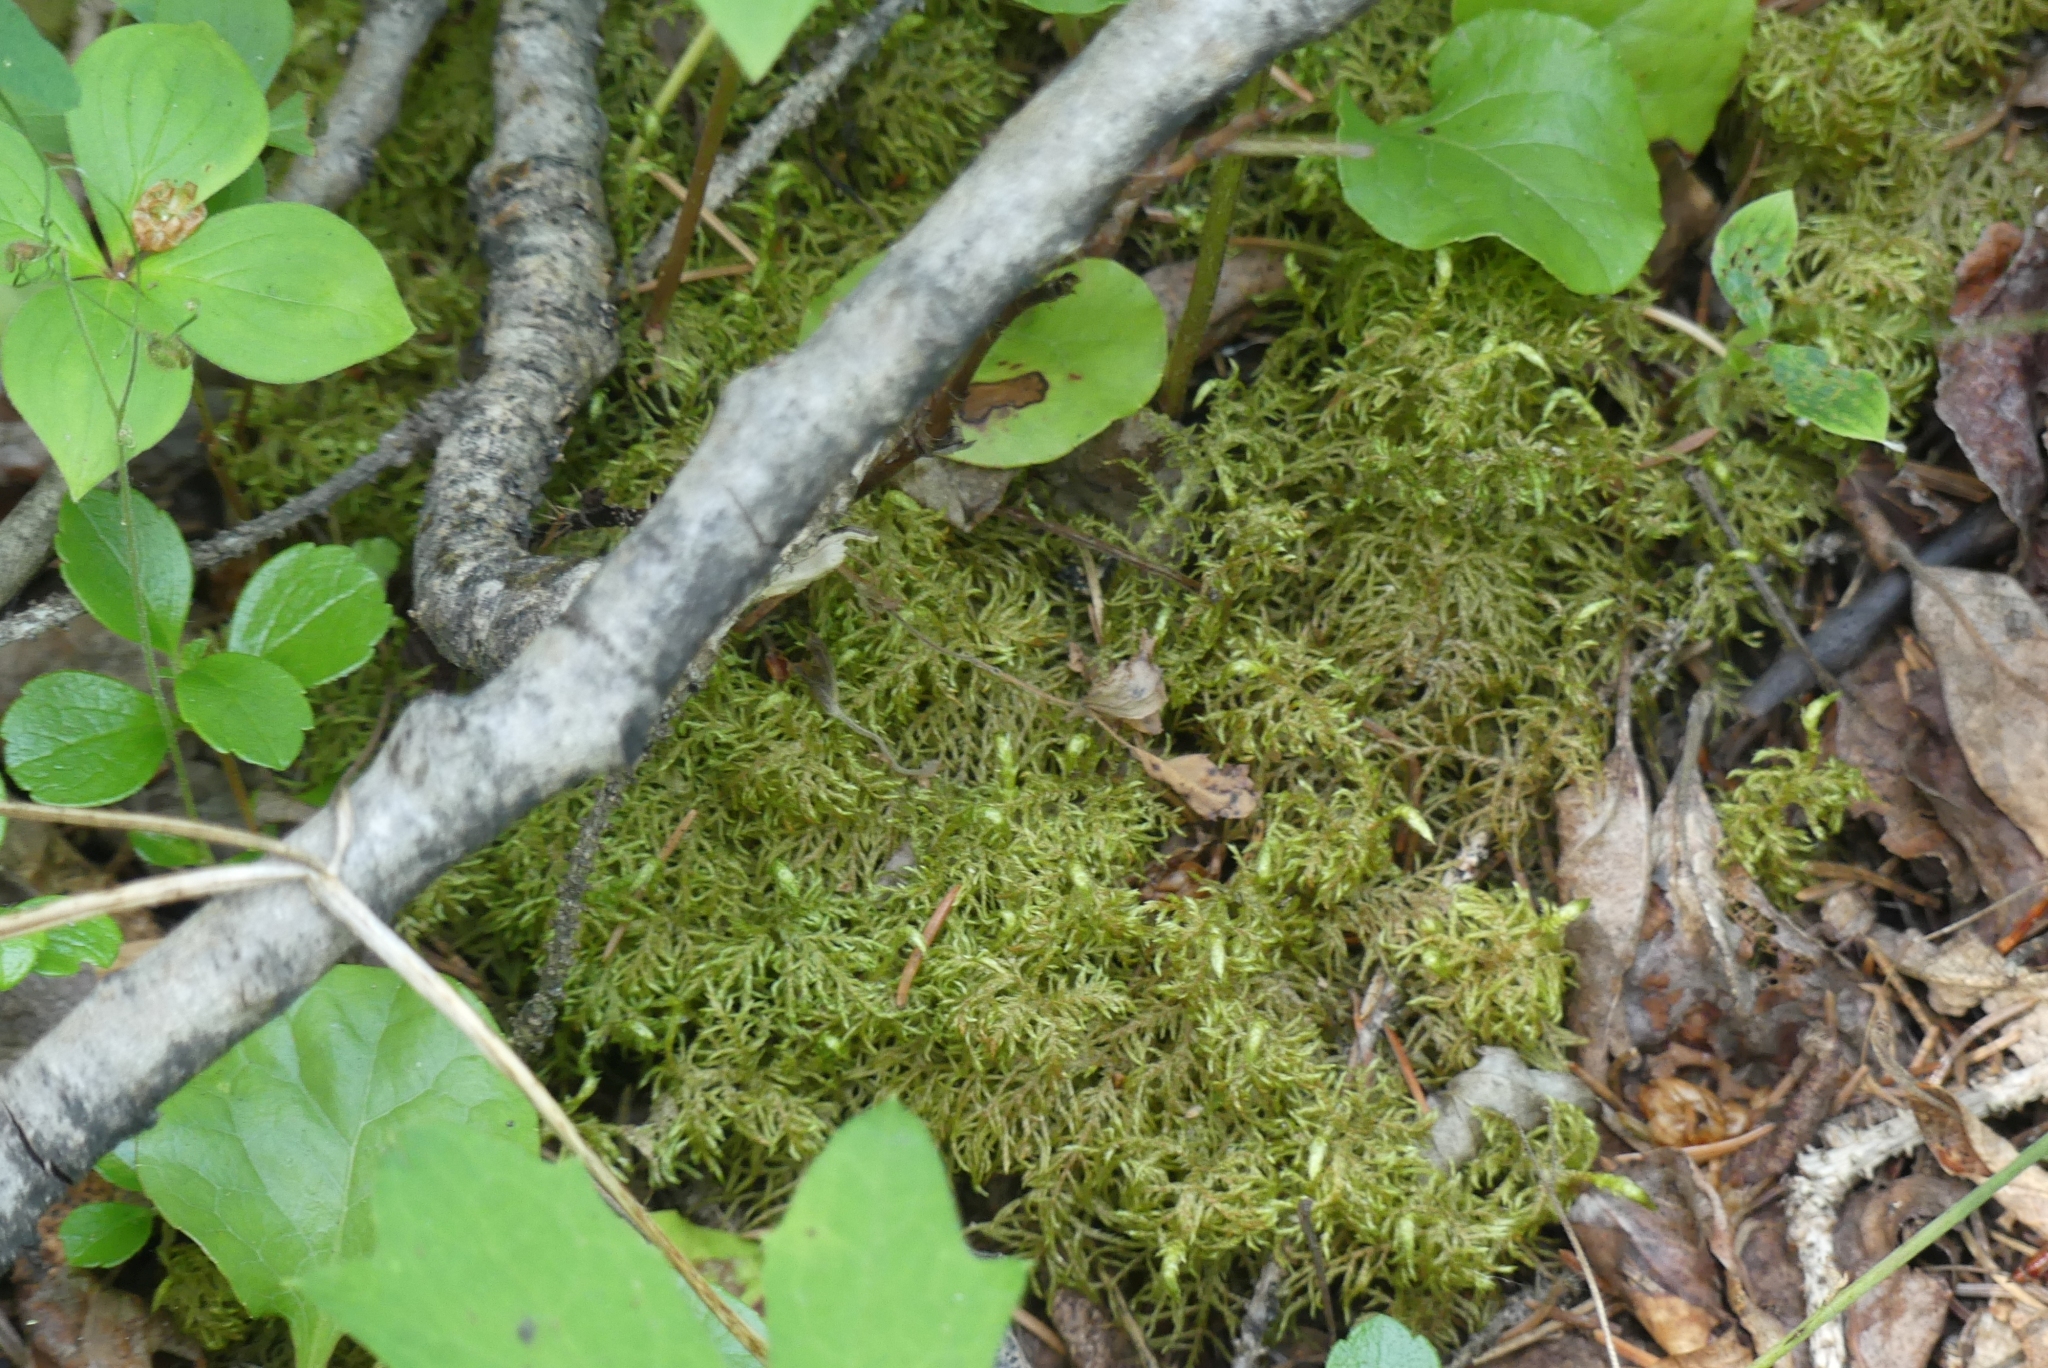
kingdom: Plantae
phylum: Bryophyta
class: Bryopsida
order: Hypnales
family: Hylocomiaceae
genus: Hylocomium
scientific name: Hylocomium splendens
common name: Stairstep moss
